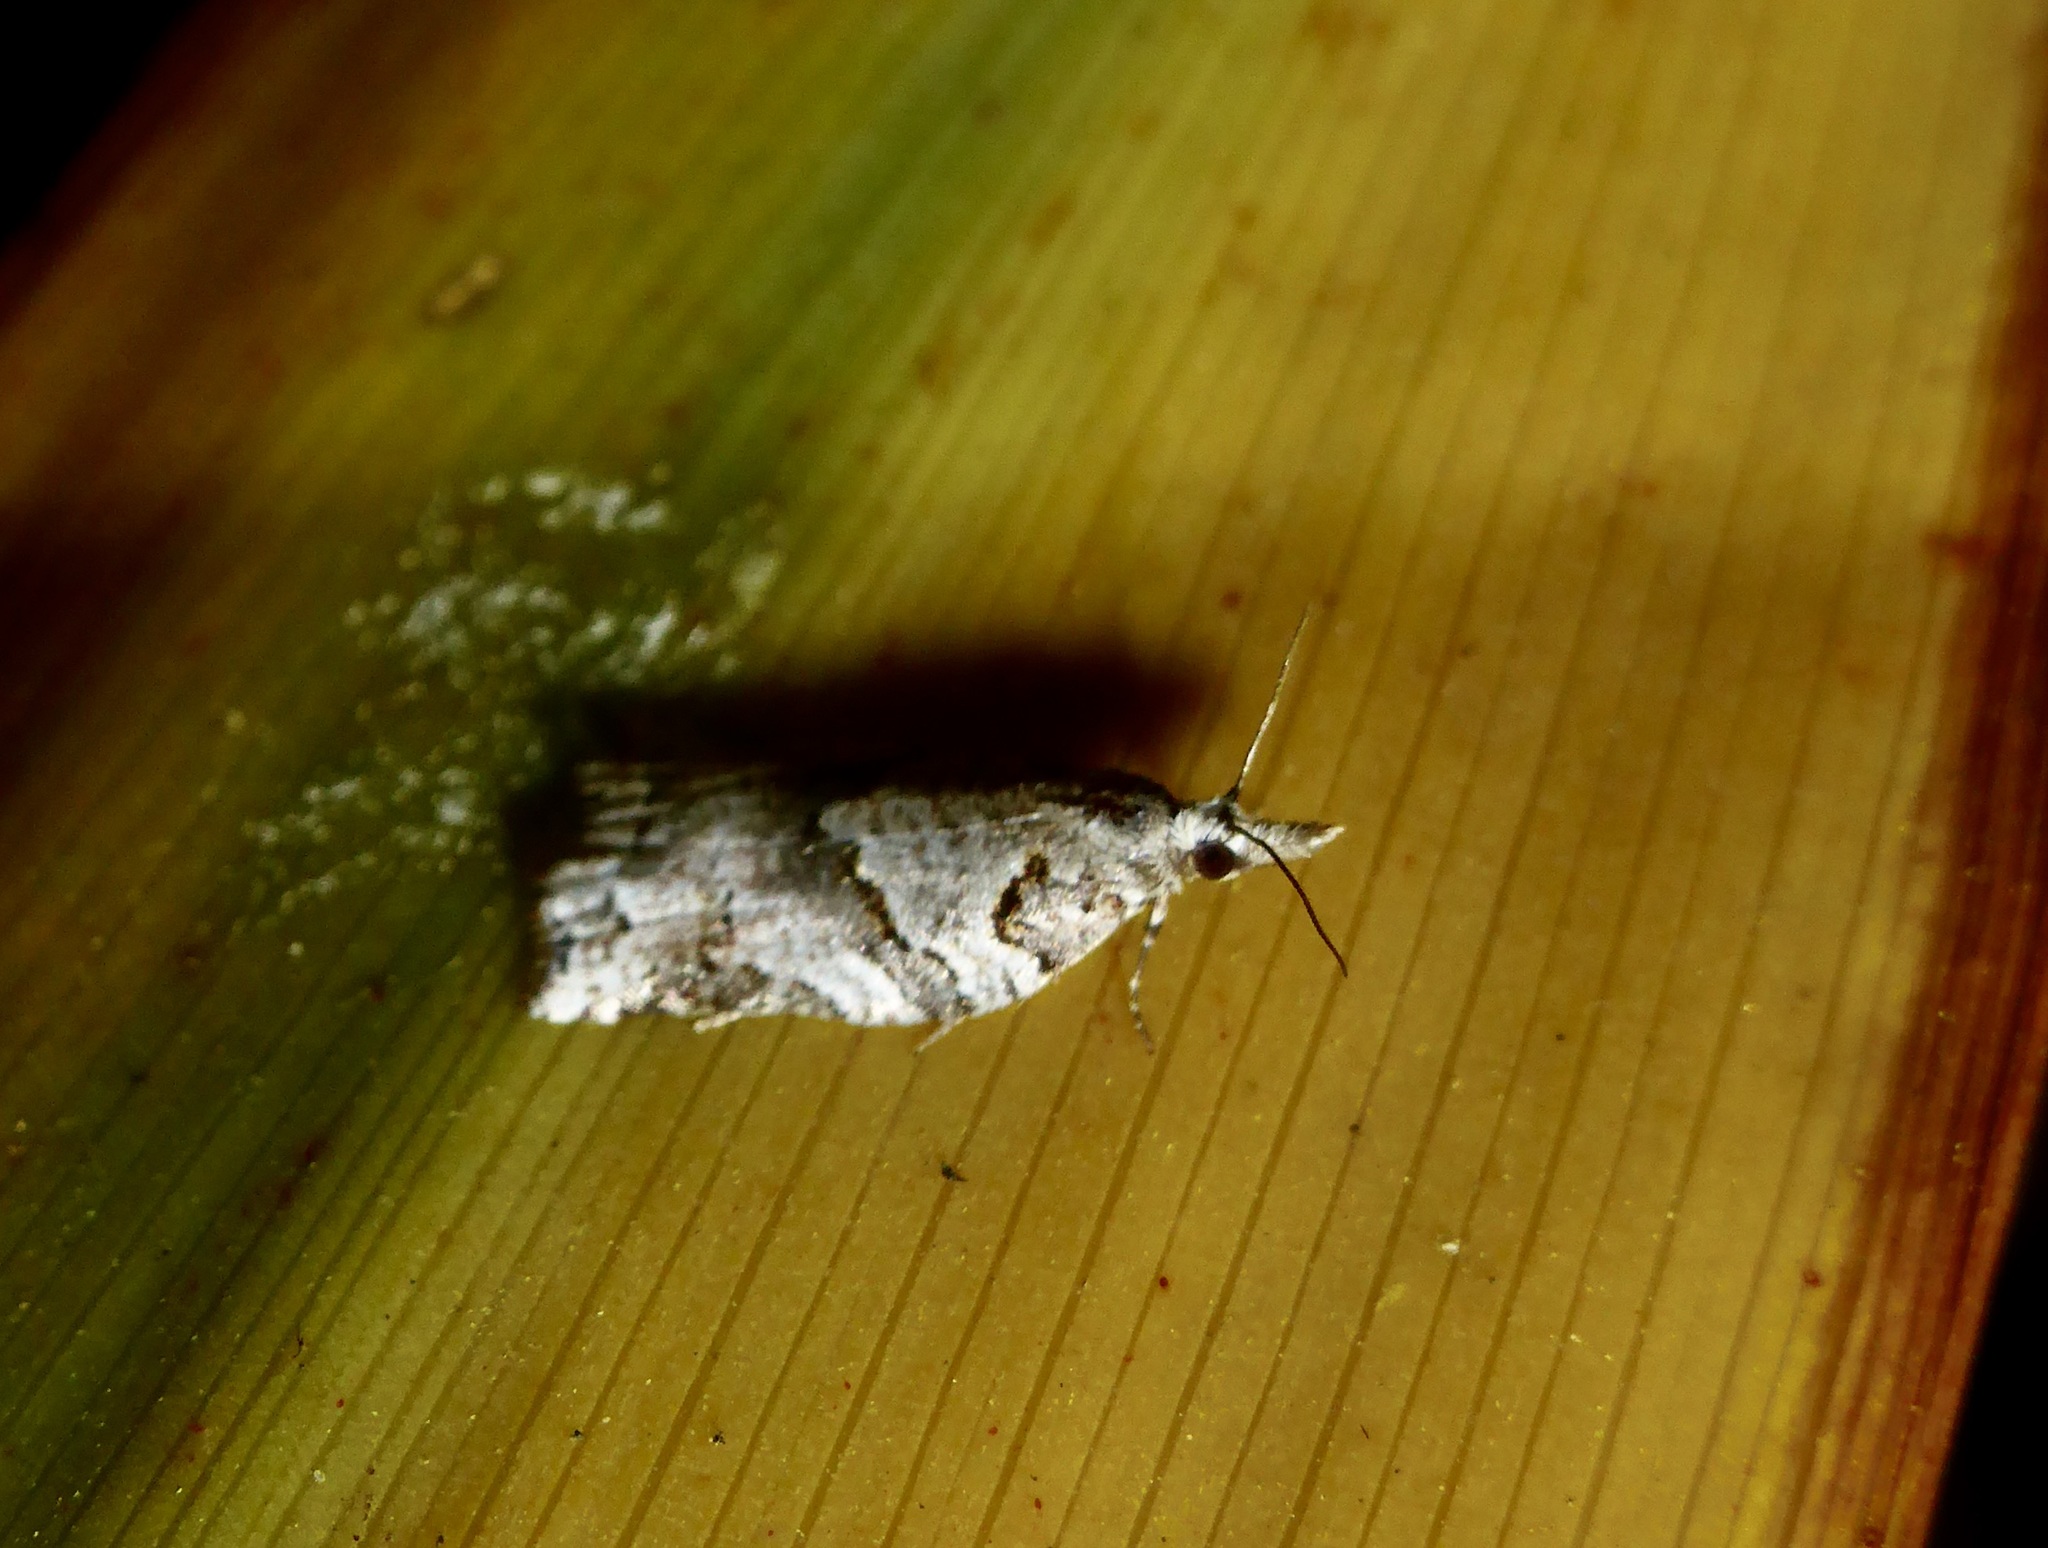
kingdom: Animalia
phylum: Arthropoda
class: Insecta
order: Lepidoptera
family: Tortricidae
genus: Harmologa
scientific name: Harmologa amplexana
